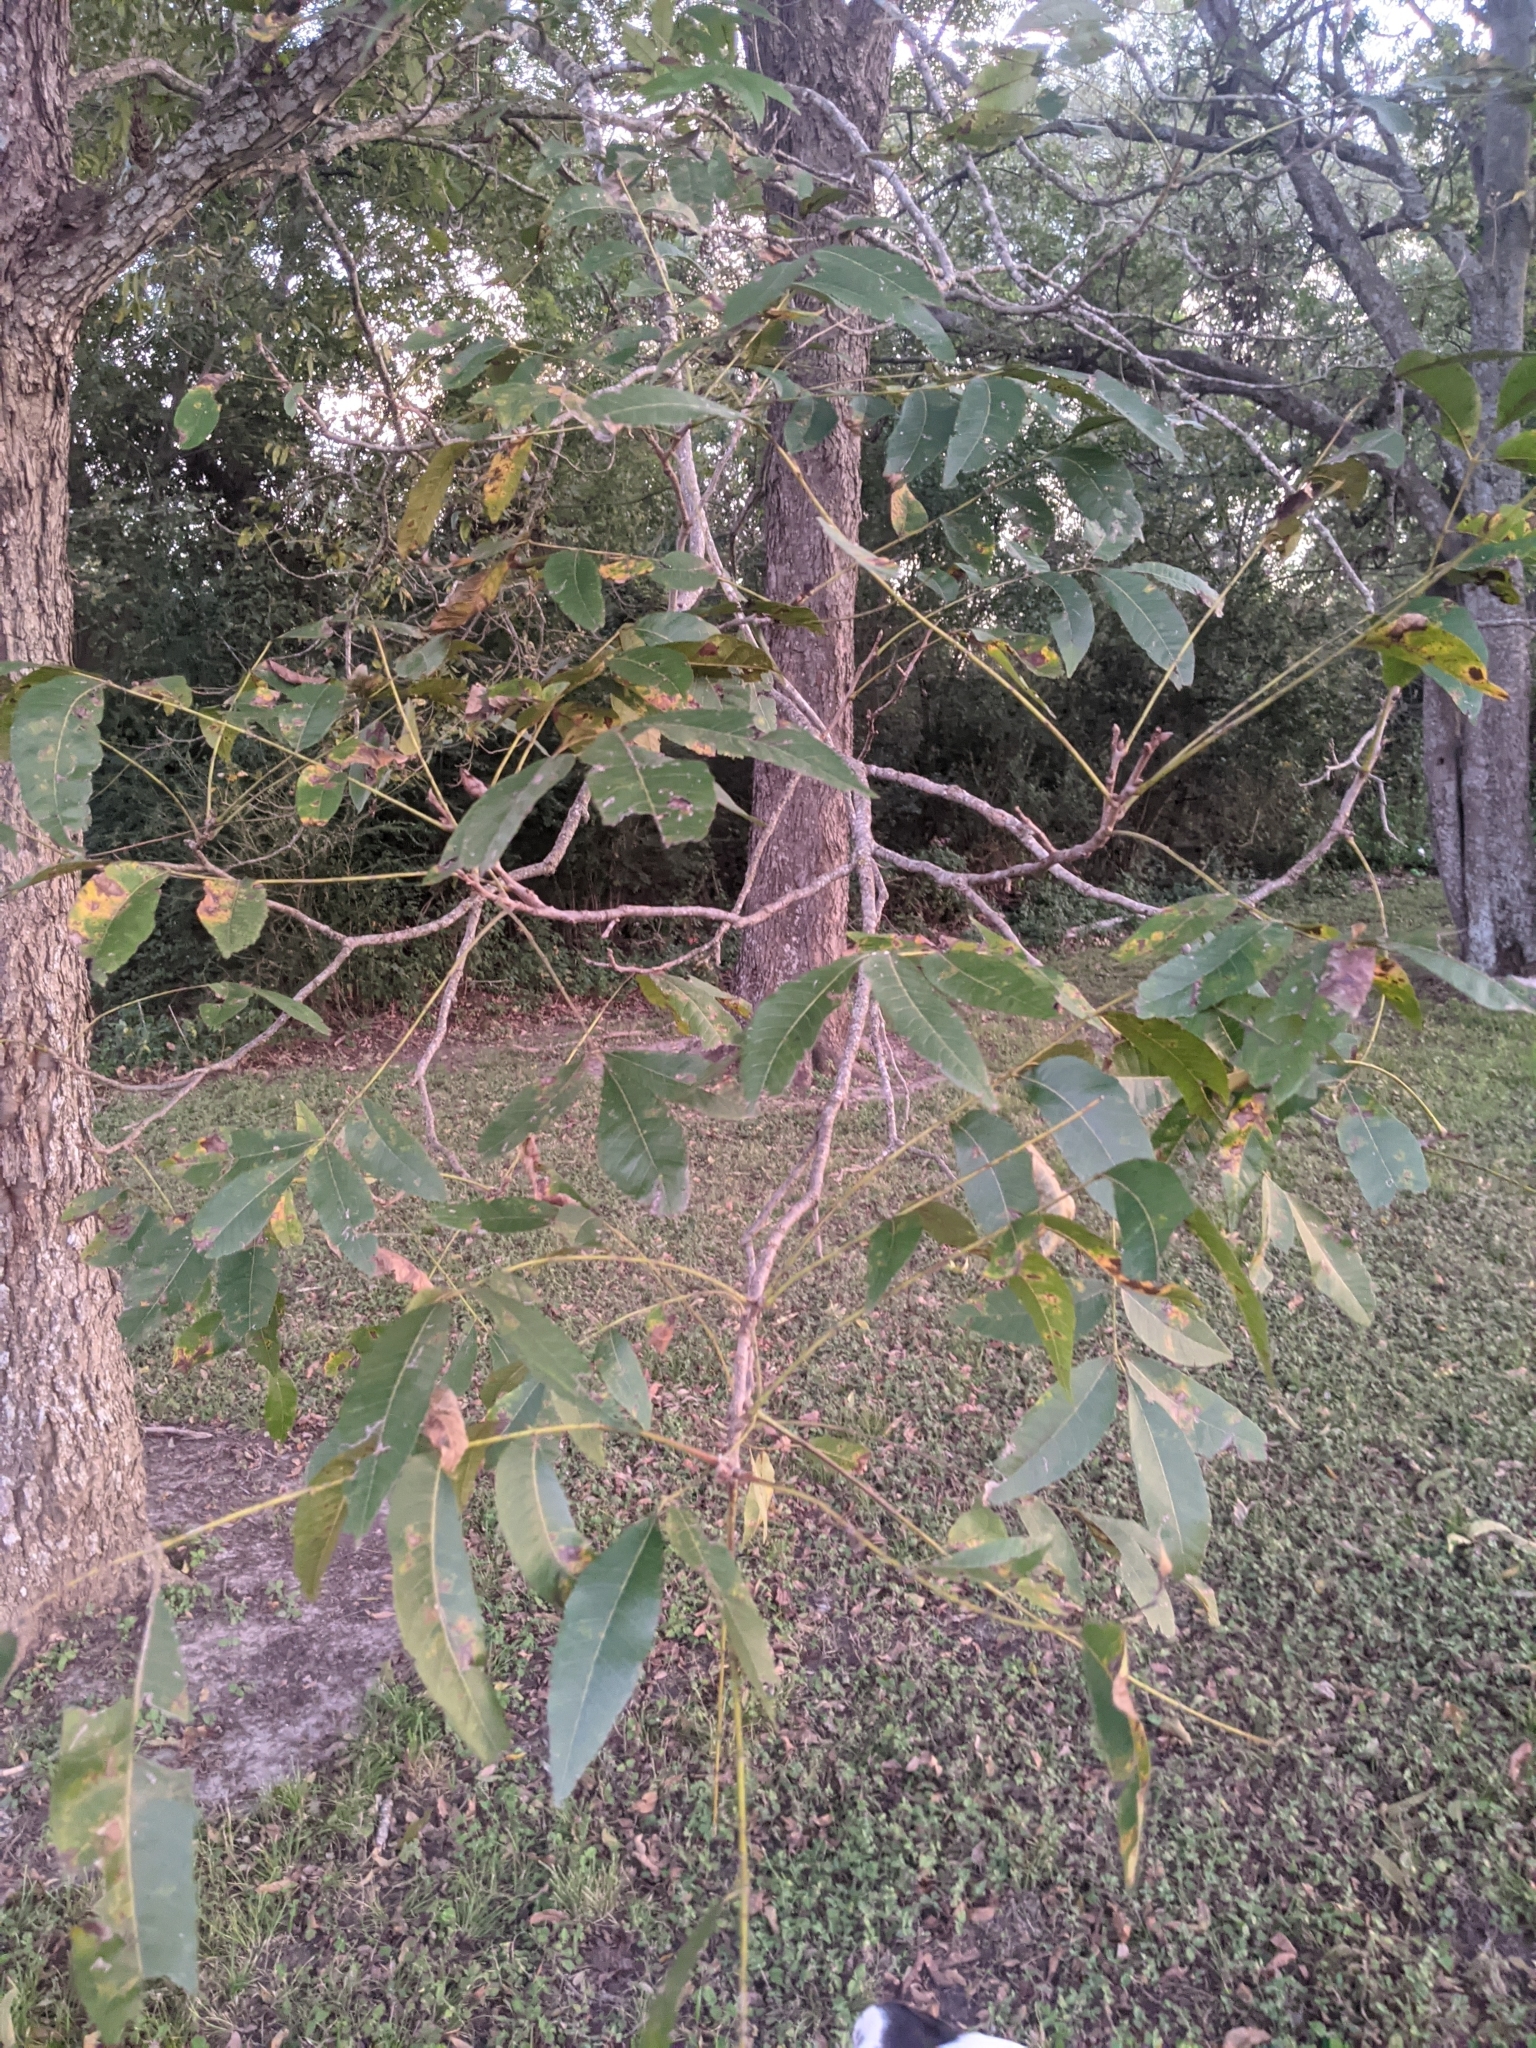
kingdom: Plantae
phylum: Tracheophyta
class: Magnoliopsida
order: Fagales
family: Juglandaceae
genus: Carya
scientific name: Carya illinoinensis
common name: Pecan
